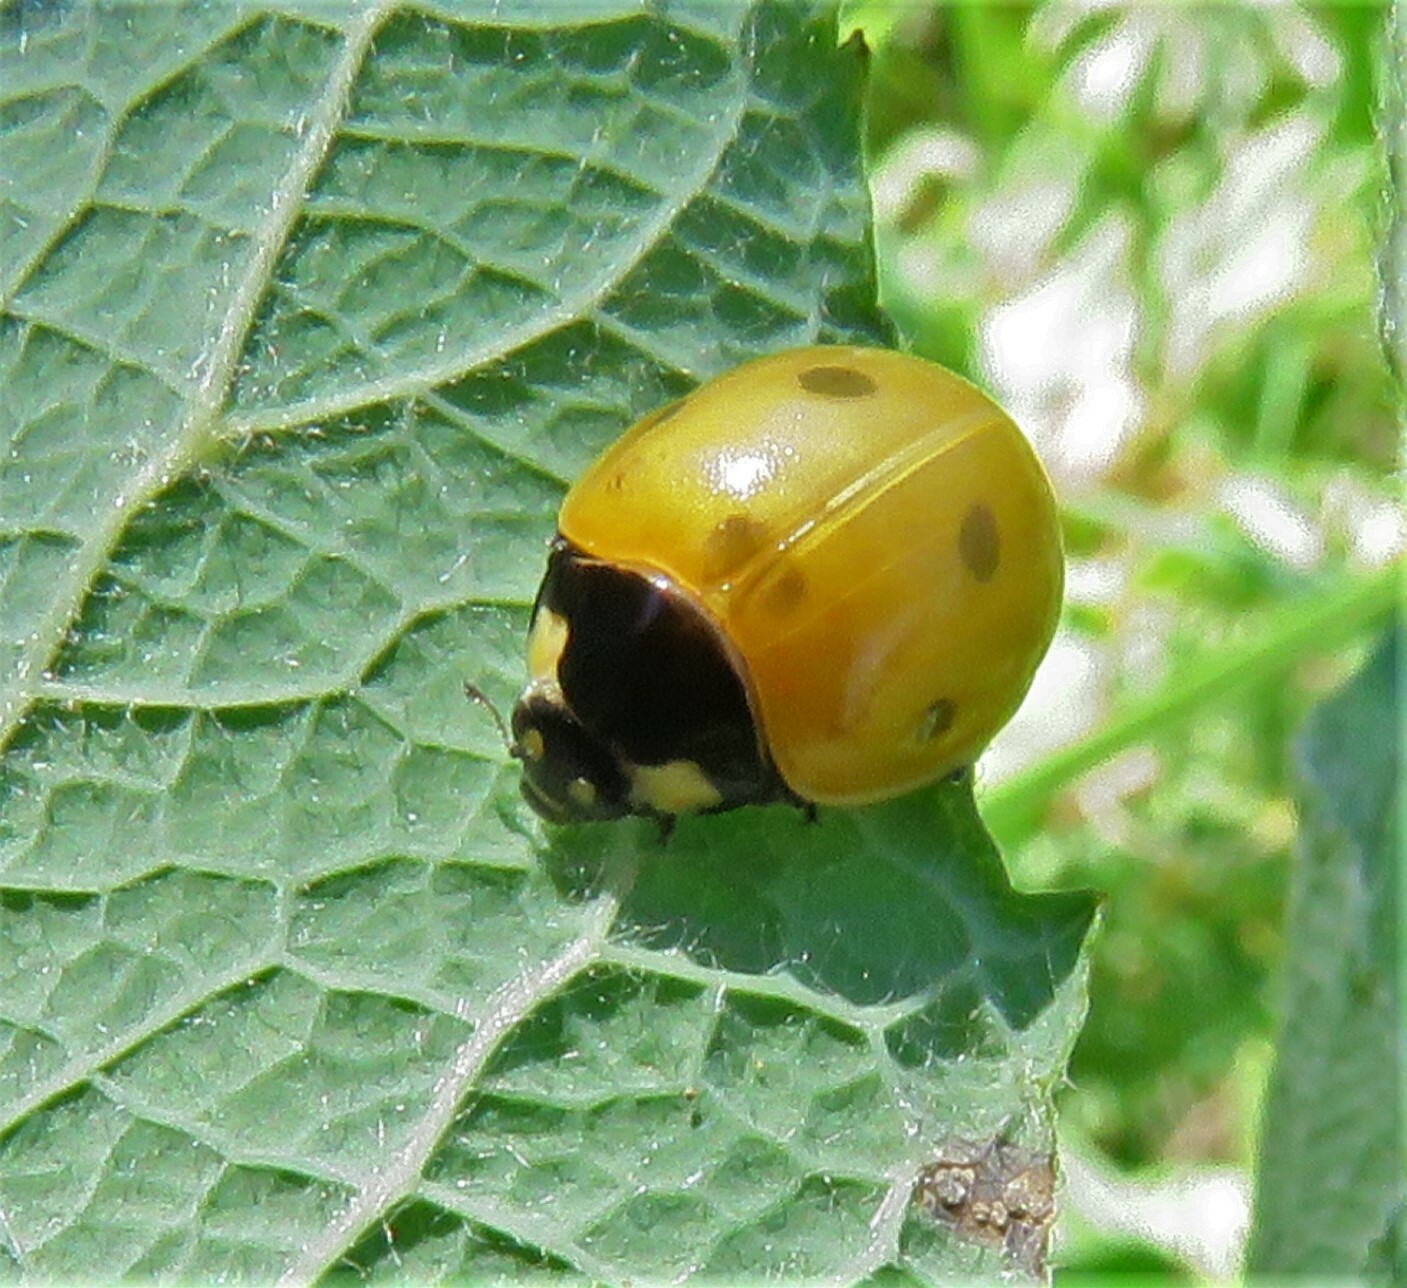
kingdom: Animalia
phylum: Arthropoda
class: Insecta
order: Coleoptera
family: Coccinellidae
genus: Coccinella
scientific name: Coccinella septempunctata
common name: Sevenspotted lady beetle
